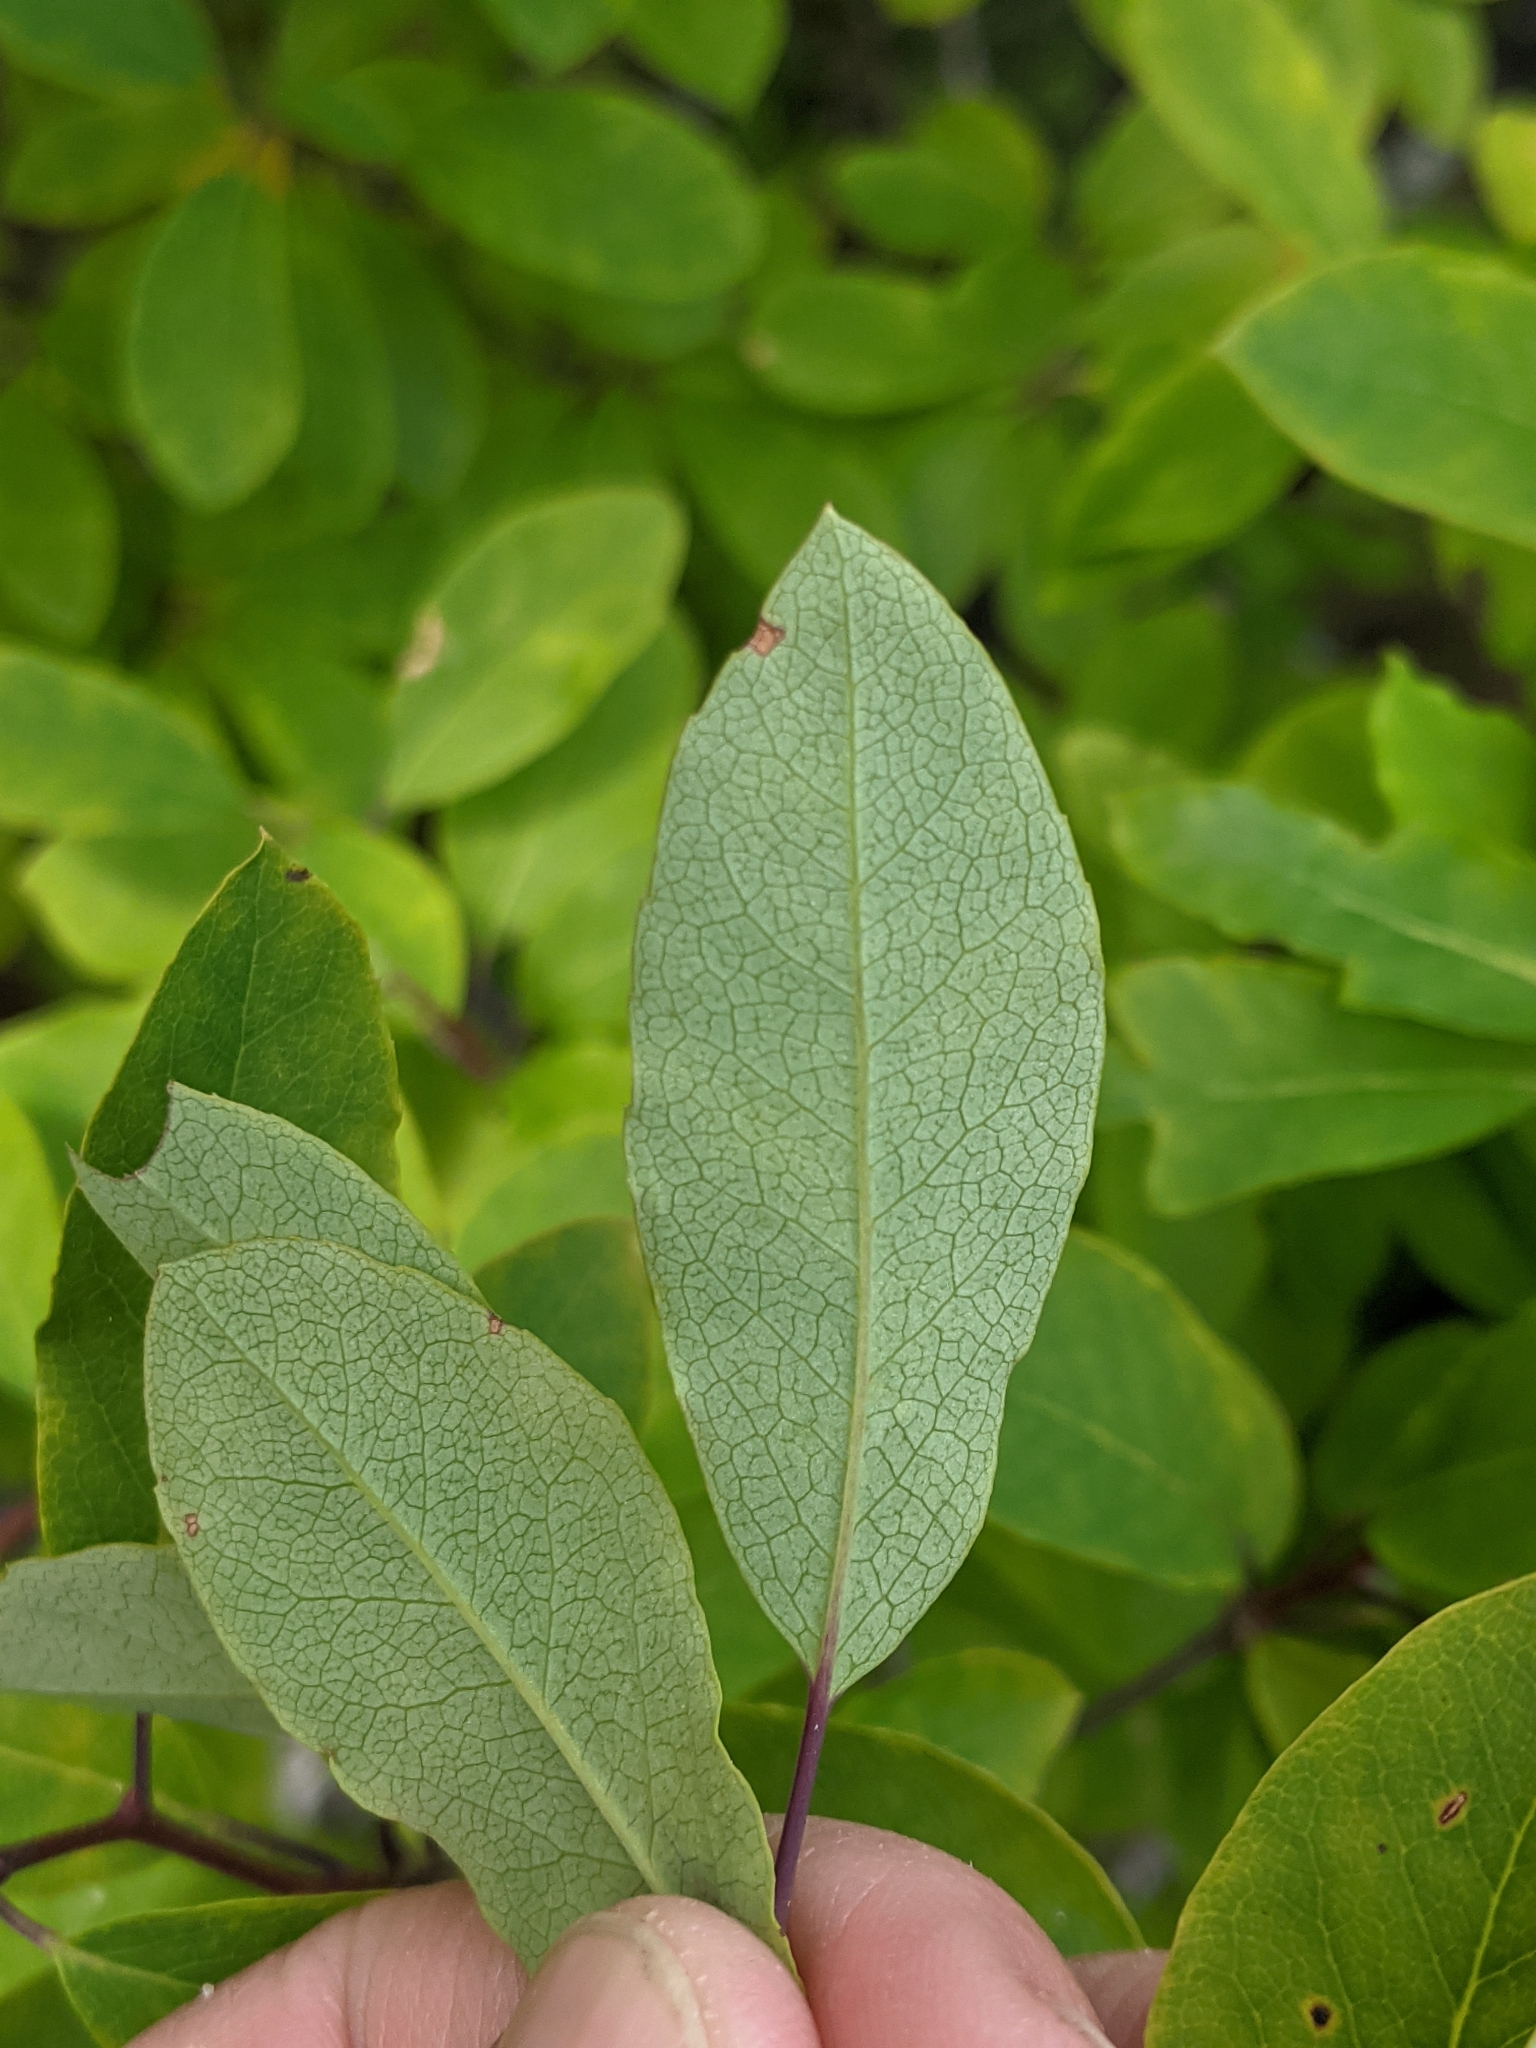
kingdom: Plantae
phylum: Tracheophyta
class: Magnoliopsida
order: Aquifoliales
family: Aquifoliaceae
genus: Ilex
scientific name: Ilex mucronata
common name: Catberry
